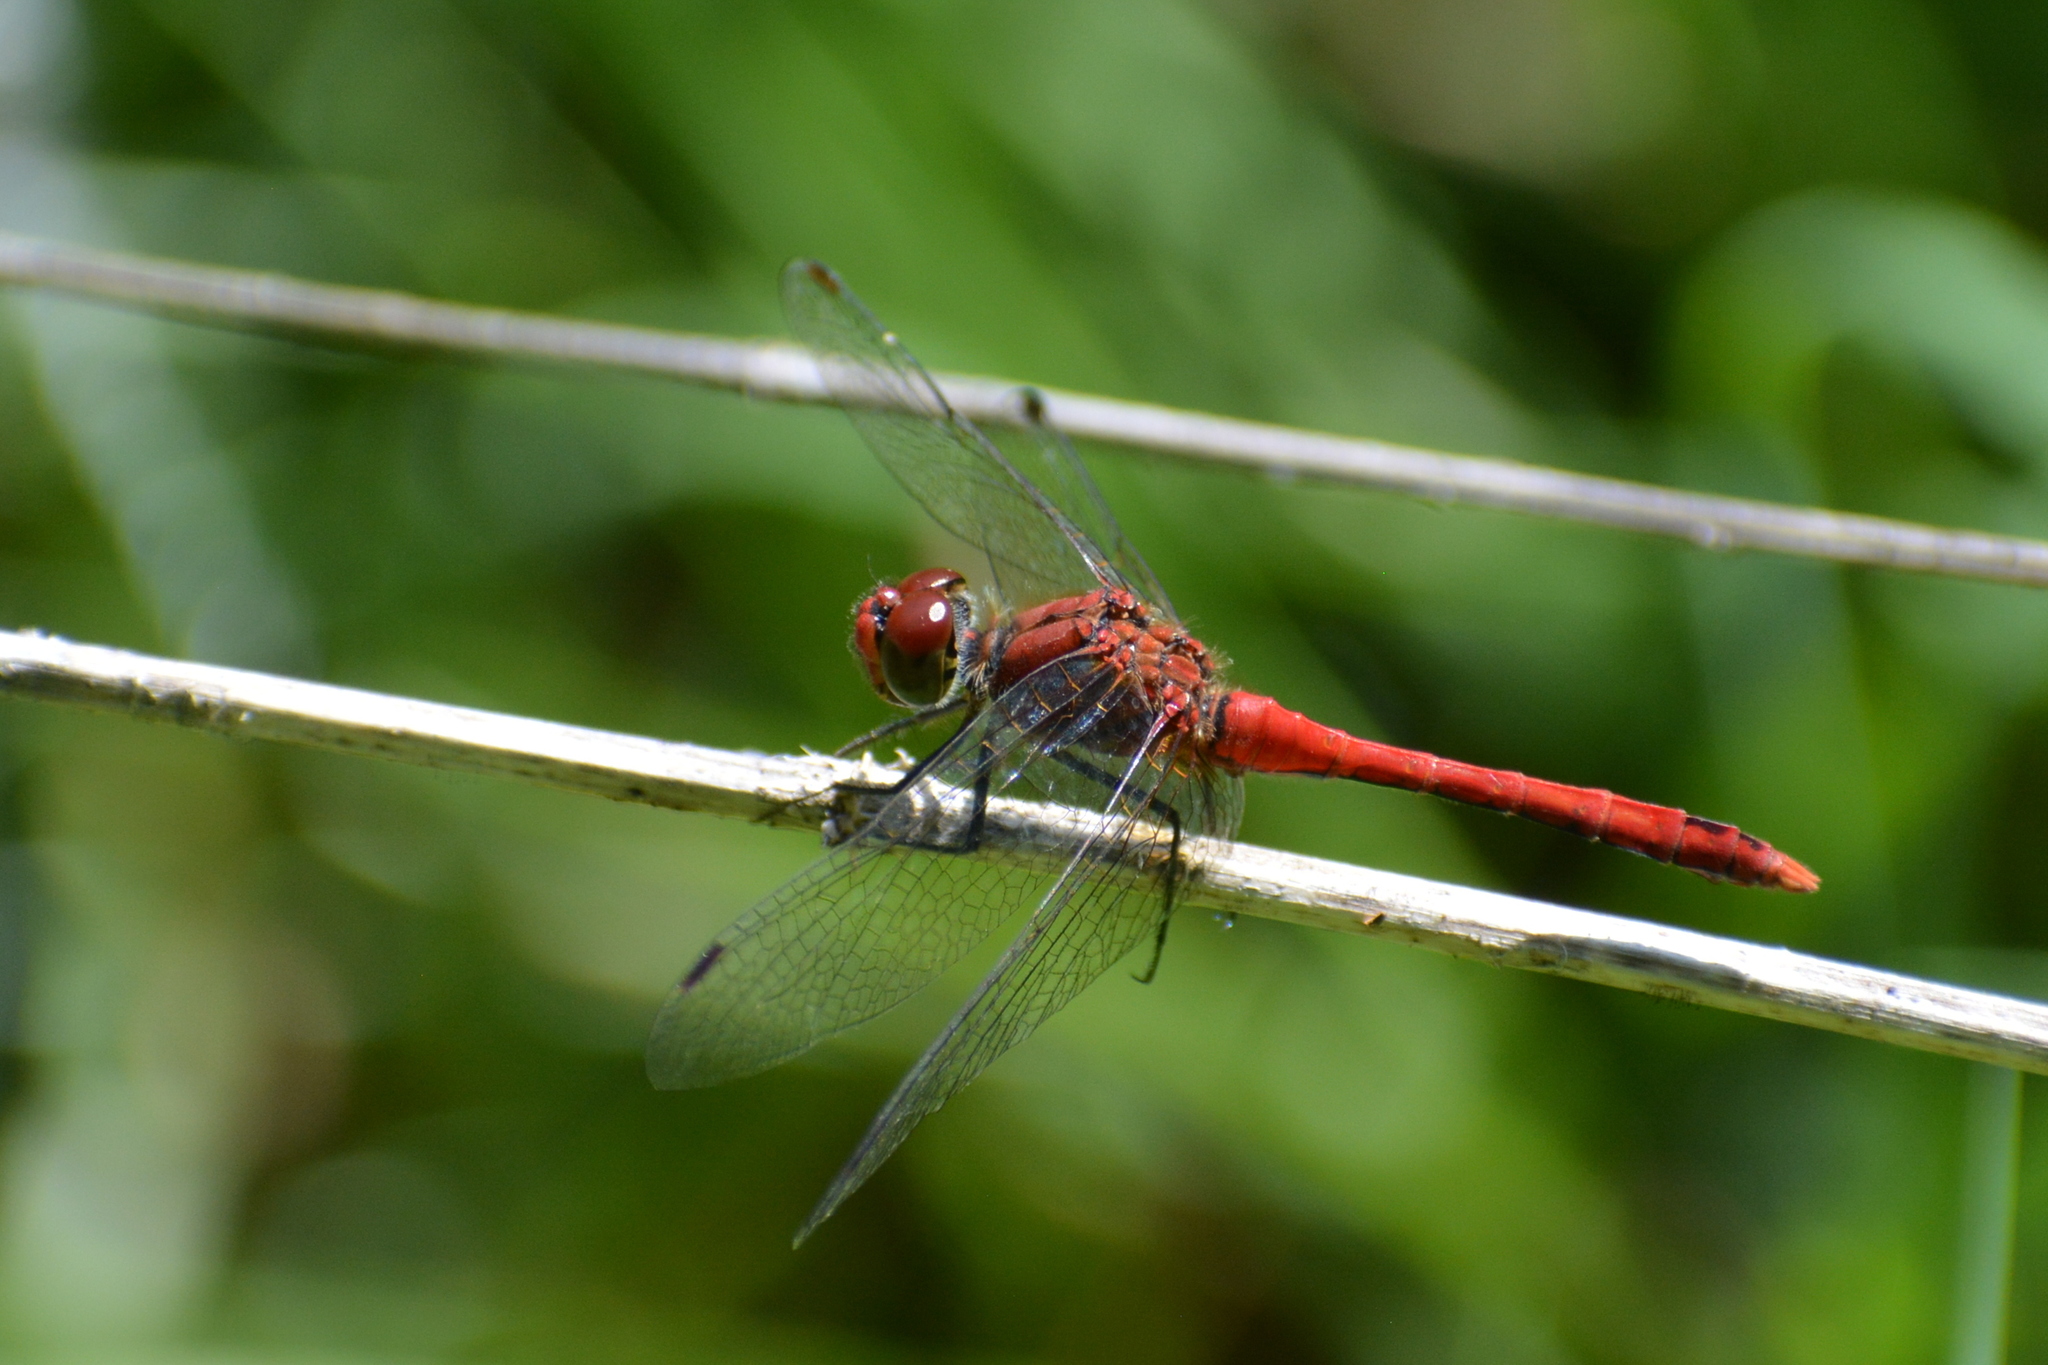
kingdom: Animalia
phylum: Arthropoda
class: Insecta
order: Odonata
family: Libellulidae
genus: Sympetrum
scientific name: Sympetrum sanguineum
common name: Ruddy darter
